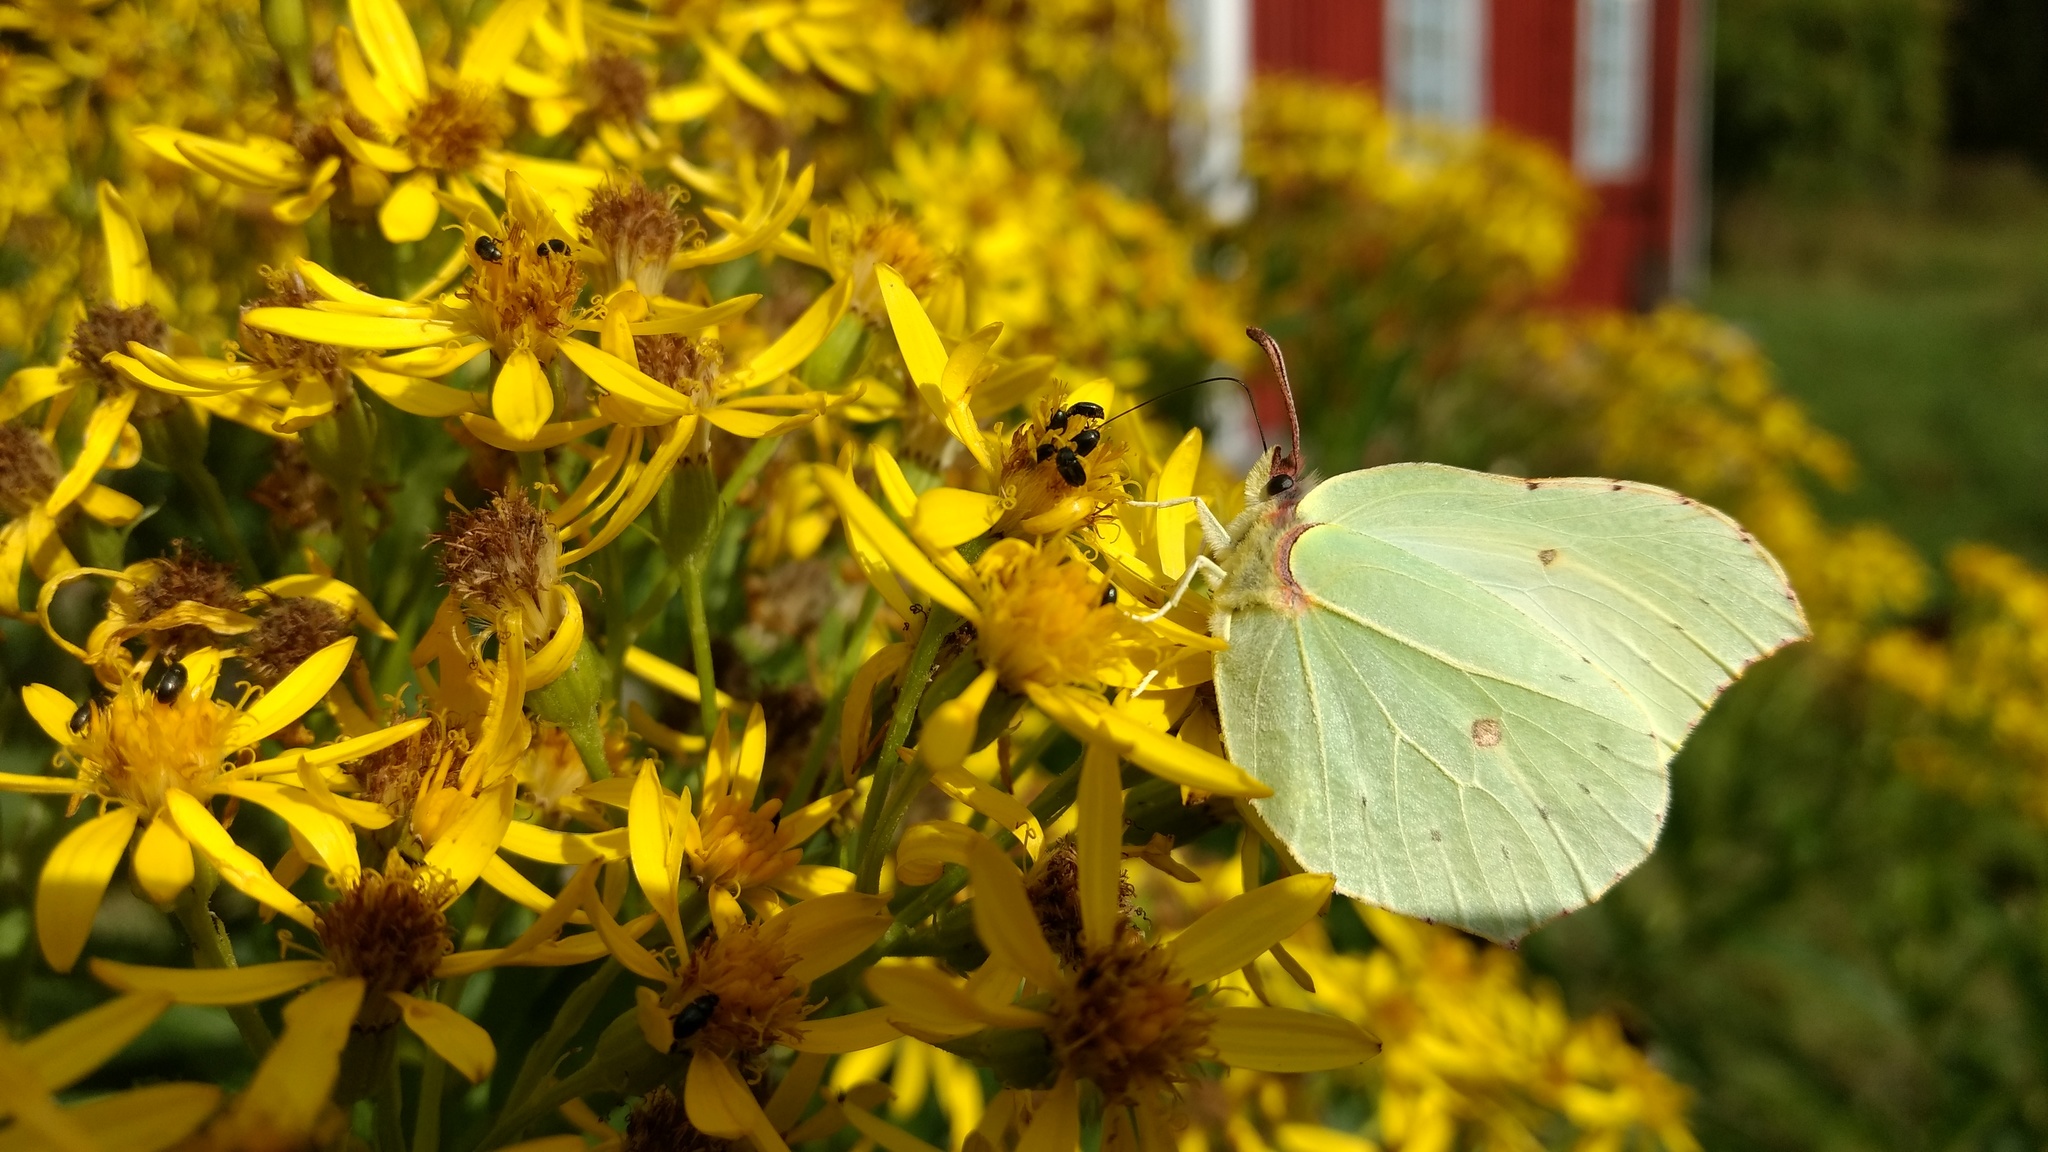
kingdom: Animalia
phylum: Arthropoda
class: Insecta
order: Lepidoptera
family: Pieridae
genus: Gonepteryx
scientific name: Gonepteryx rhamni
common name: Brimstone
